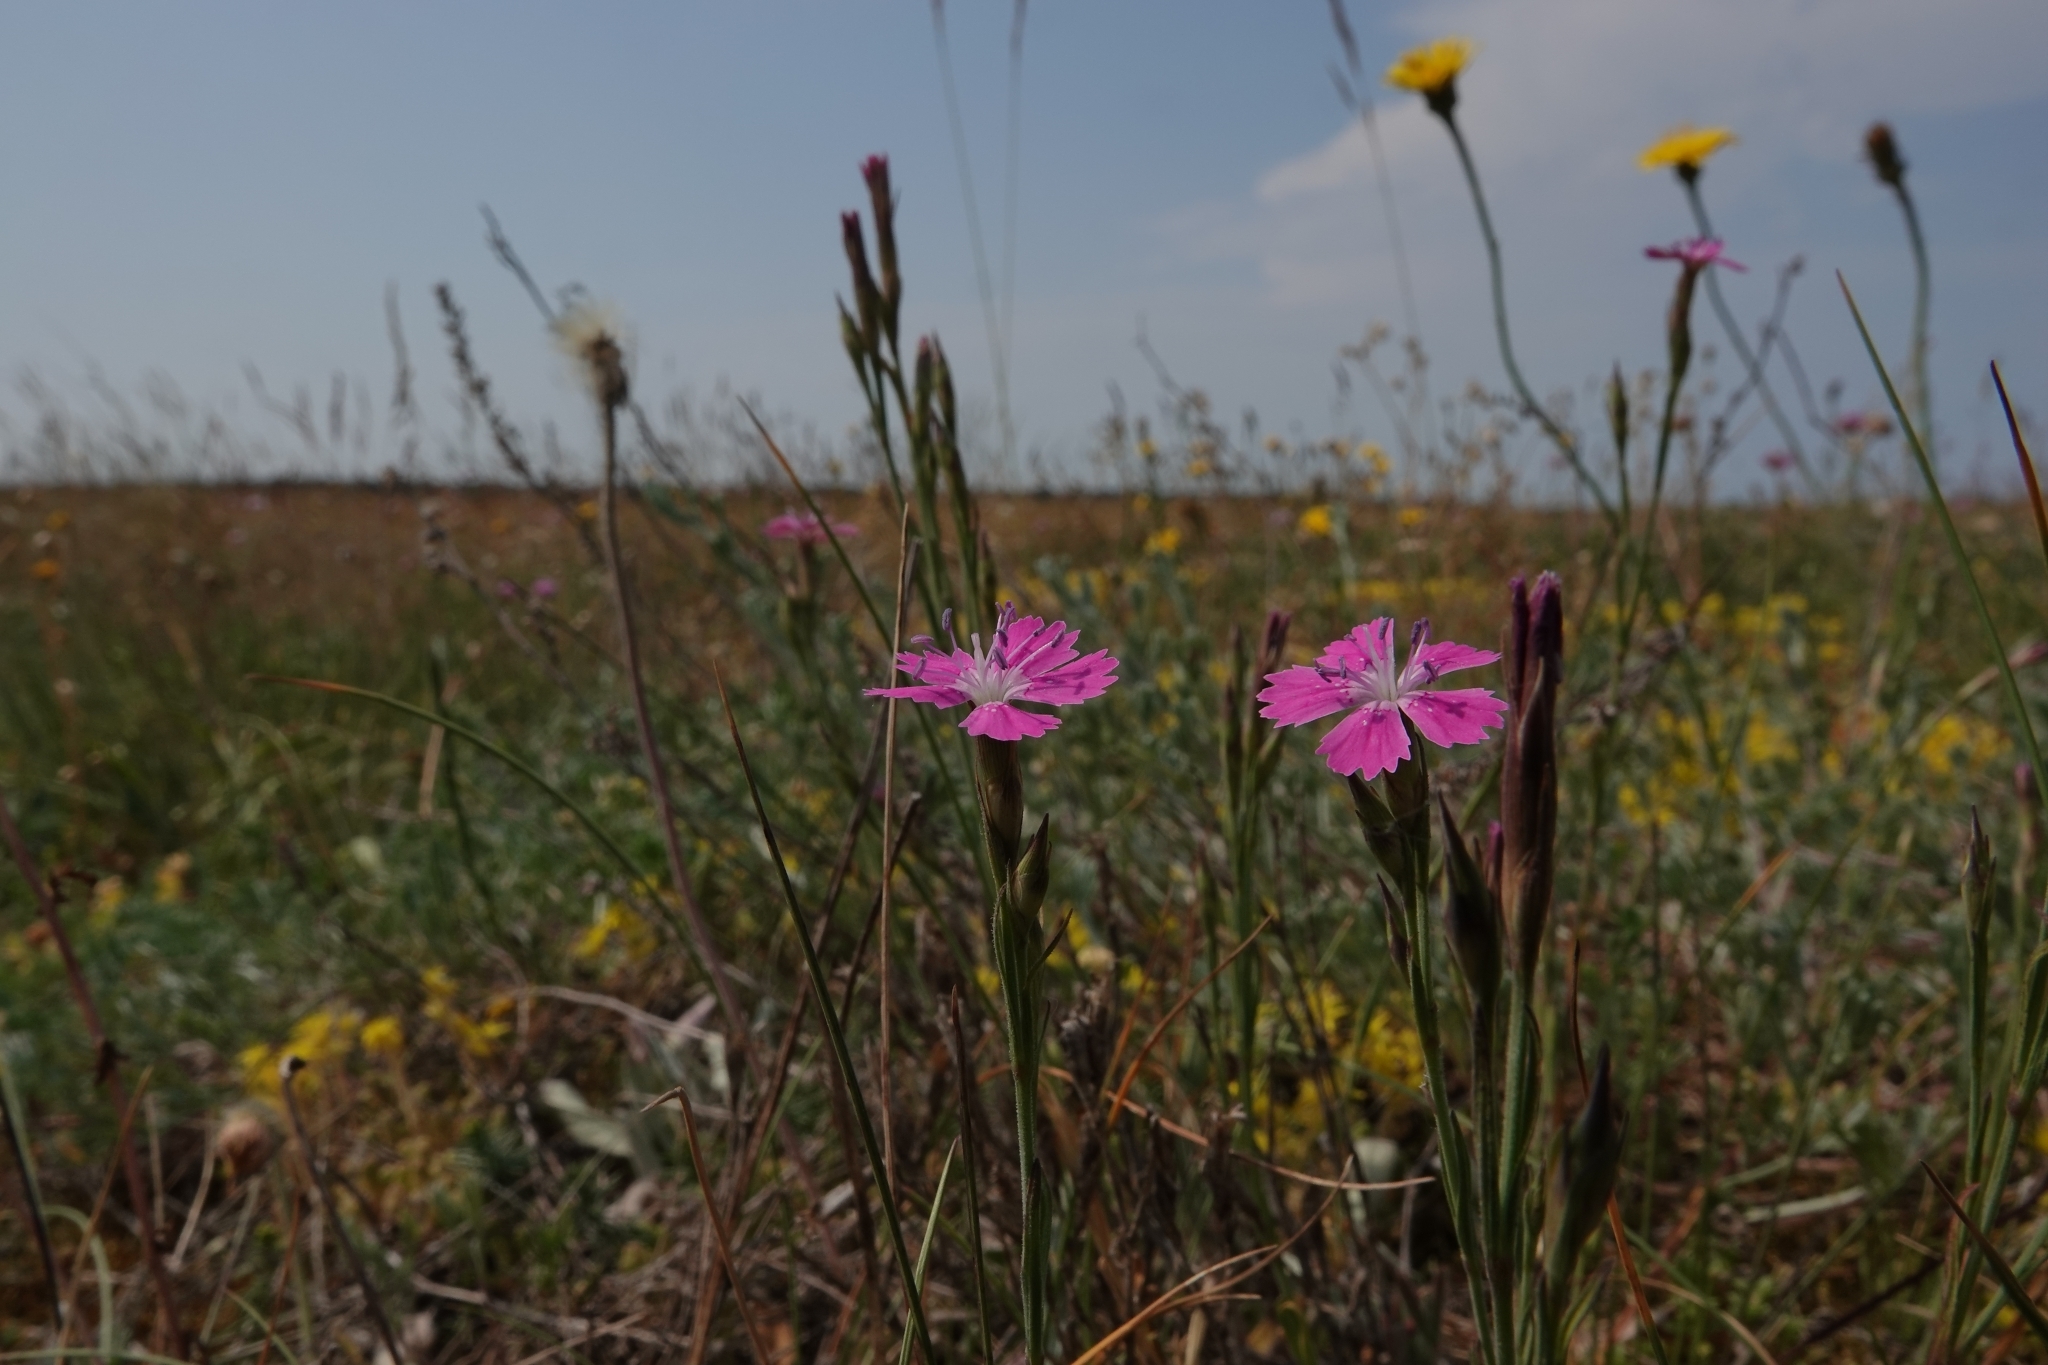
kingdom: Plantae
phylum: Tracheophyta
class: Magnoliopsida
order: Caryophyllales
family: Caryophyllaceae
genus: Dianthus
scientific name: Dianthus deltoides
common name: Maiden pink
